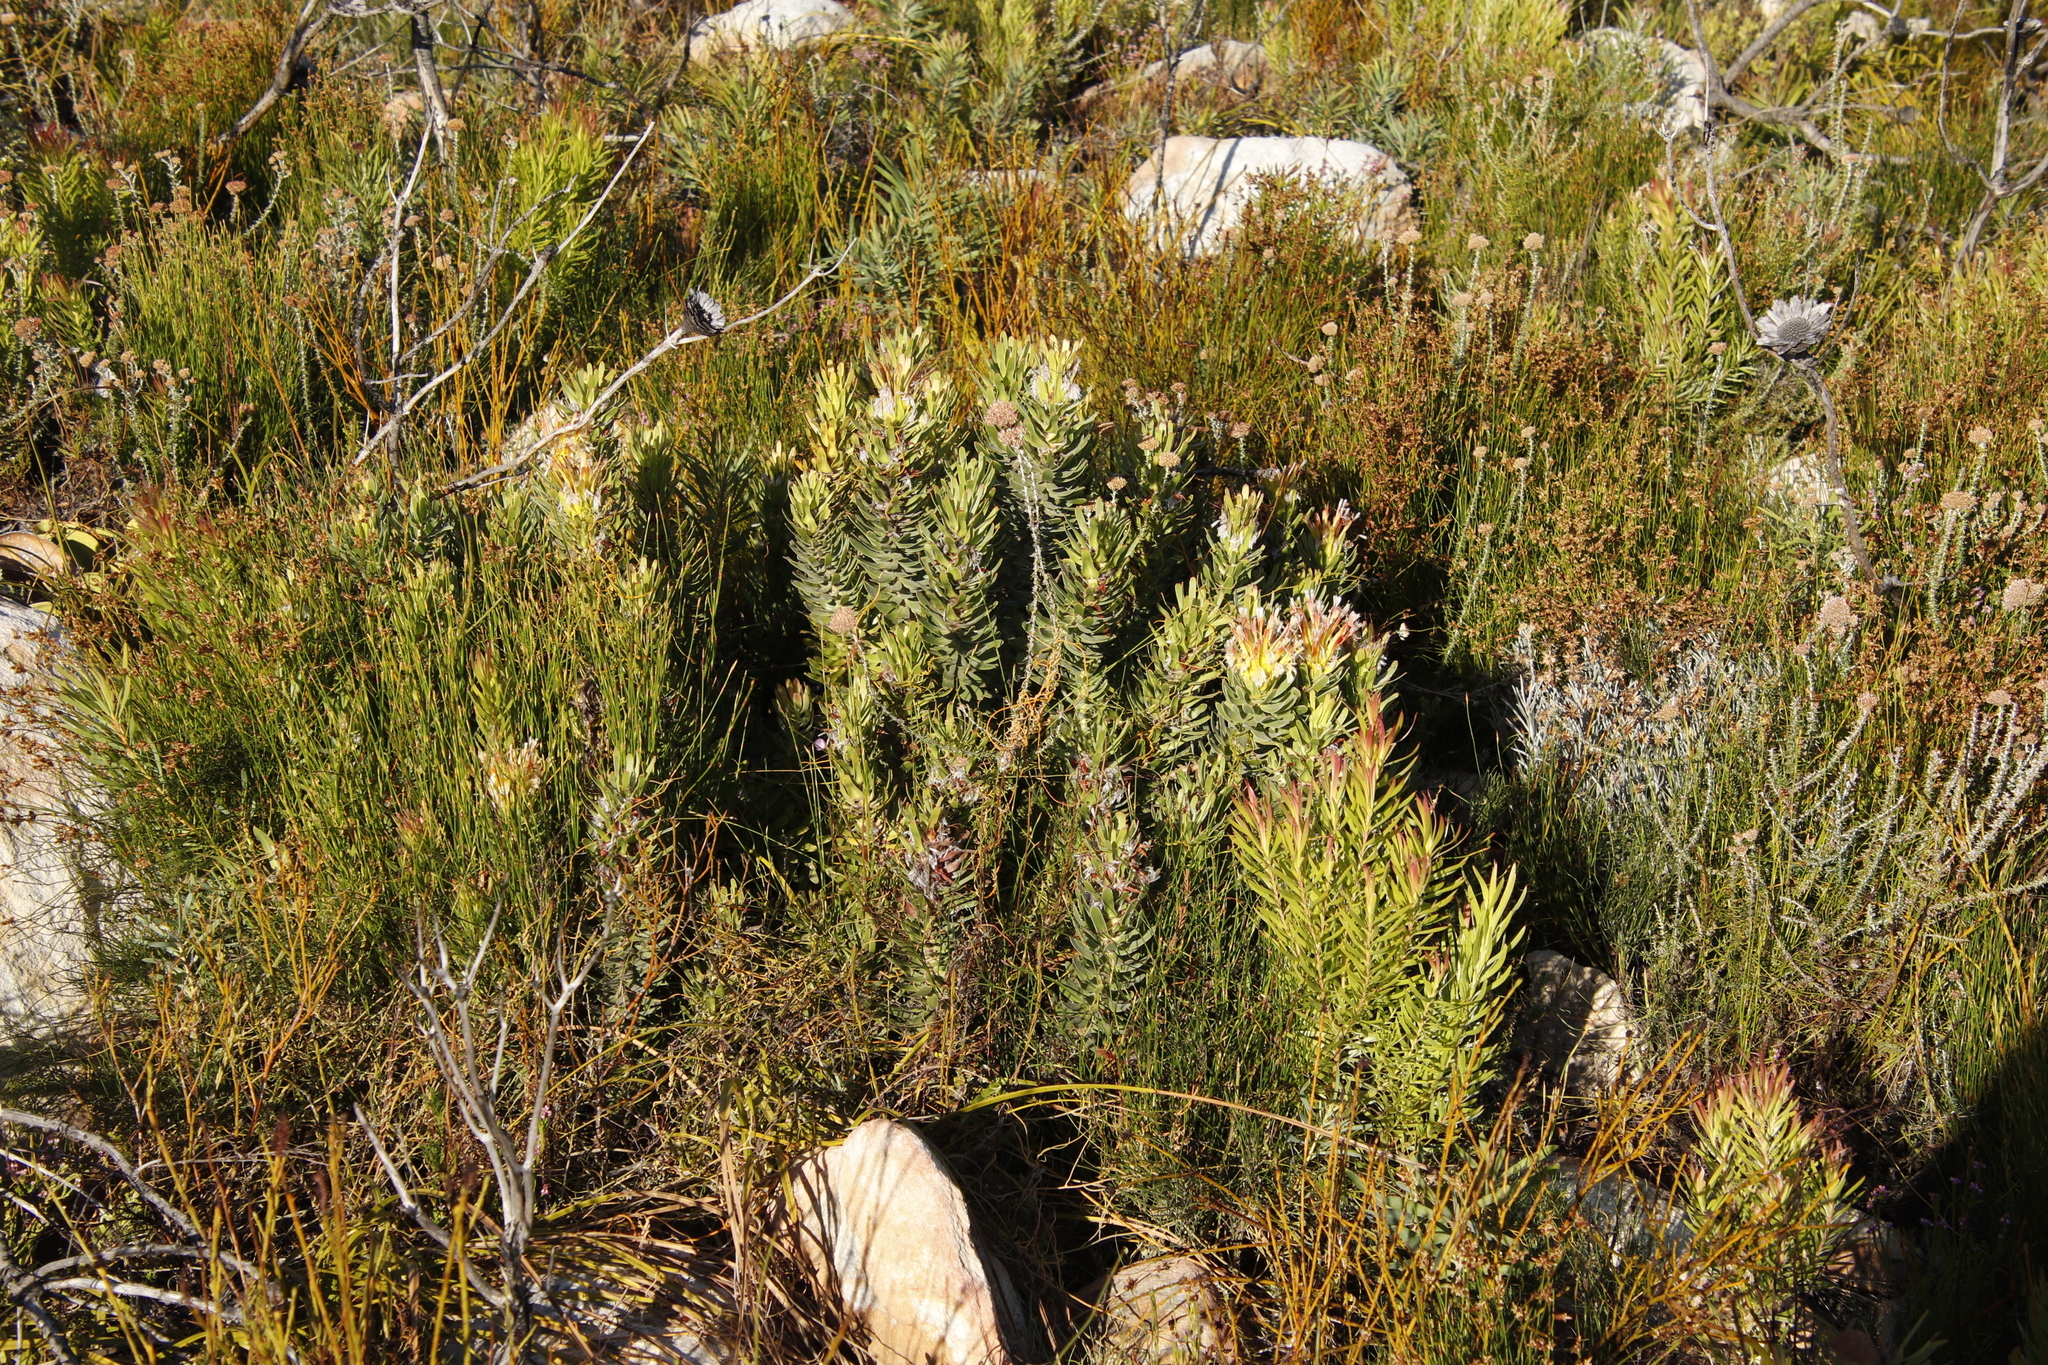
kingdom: Plantae
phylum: Tracheophyta
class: Magnoliopsida
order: Proteales
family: Proteaceae
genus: Mimetes
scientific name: Mimetes cucullatus
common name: Common pagoda
